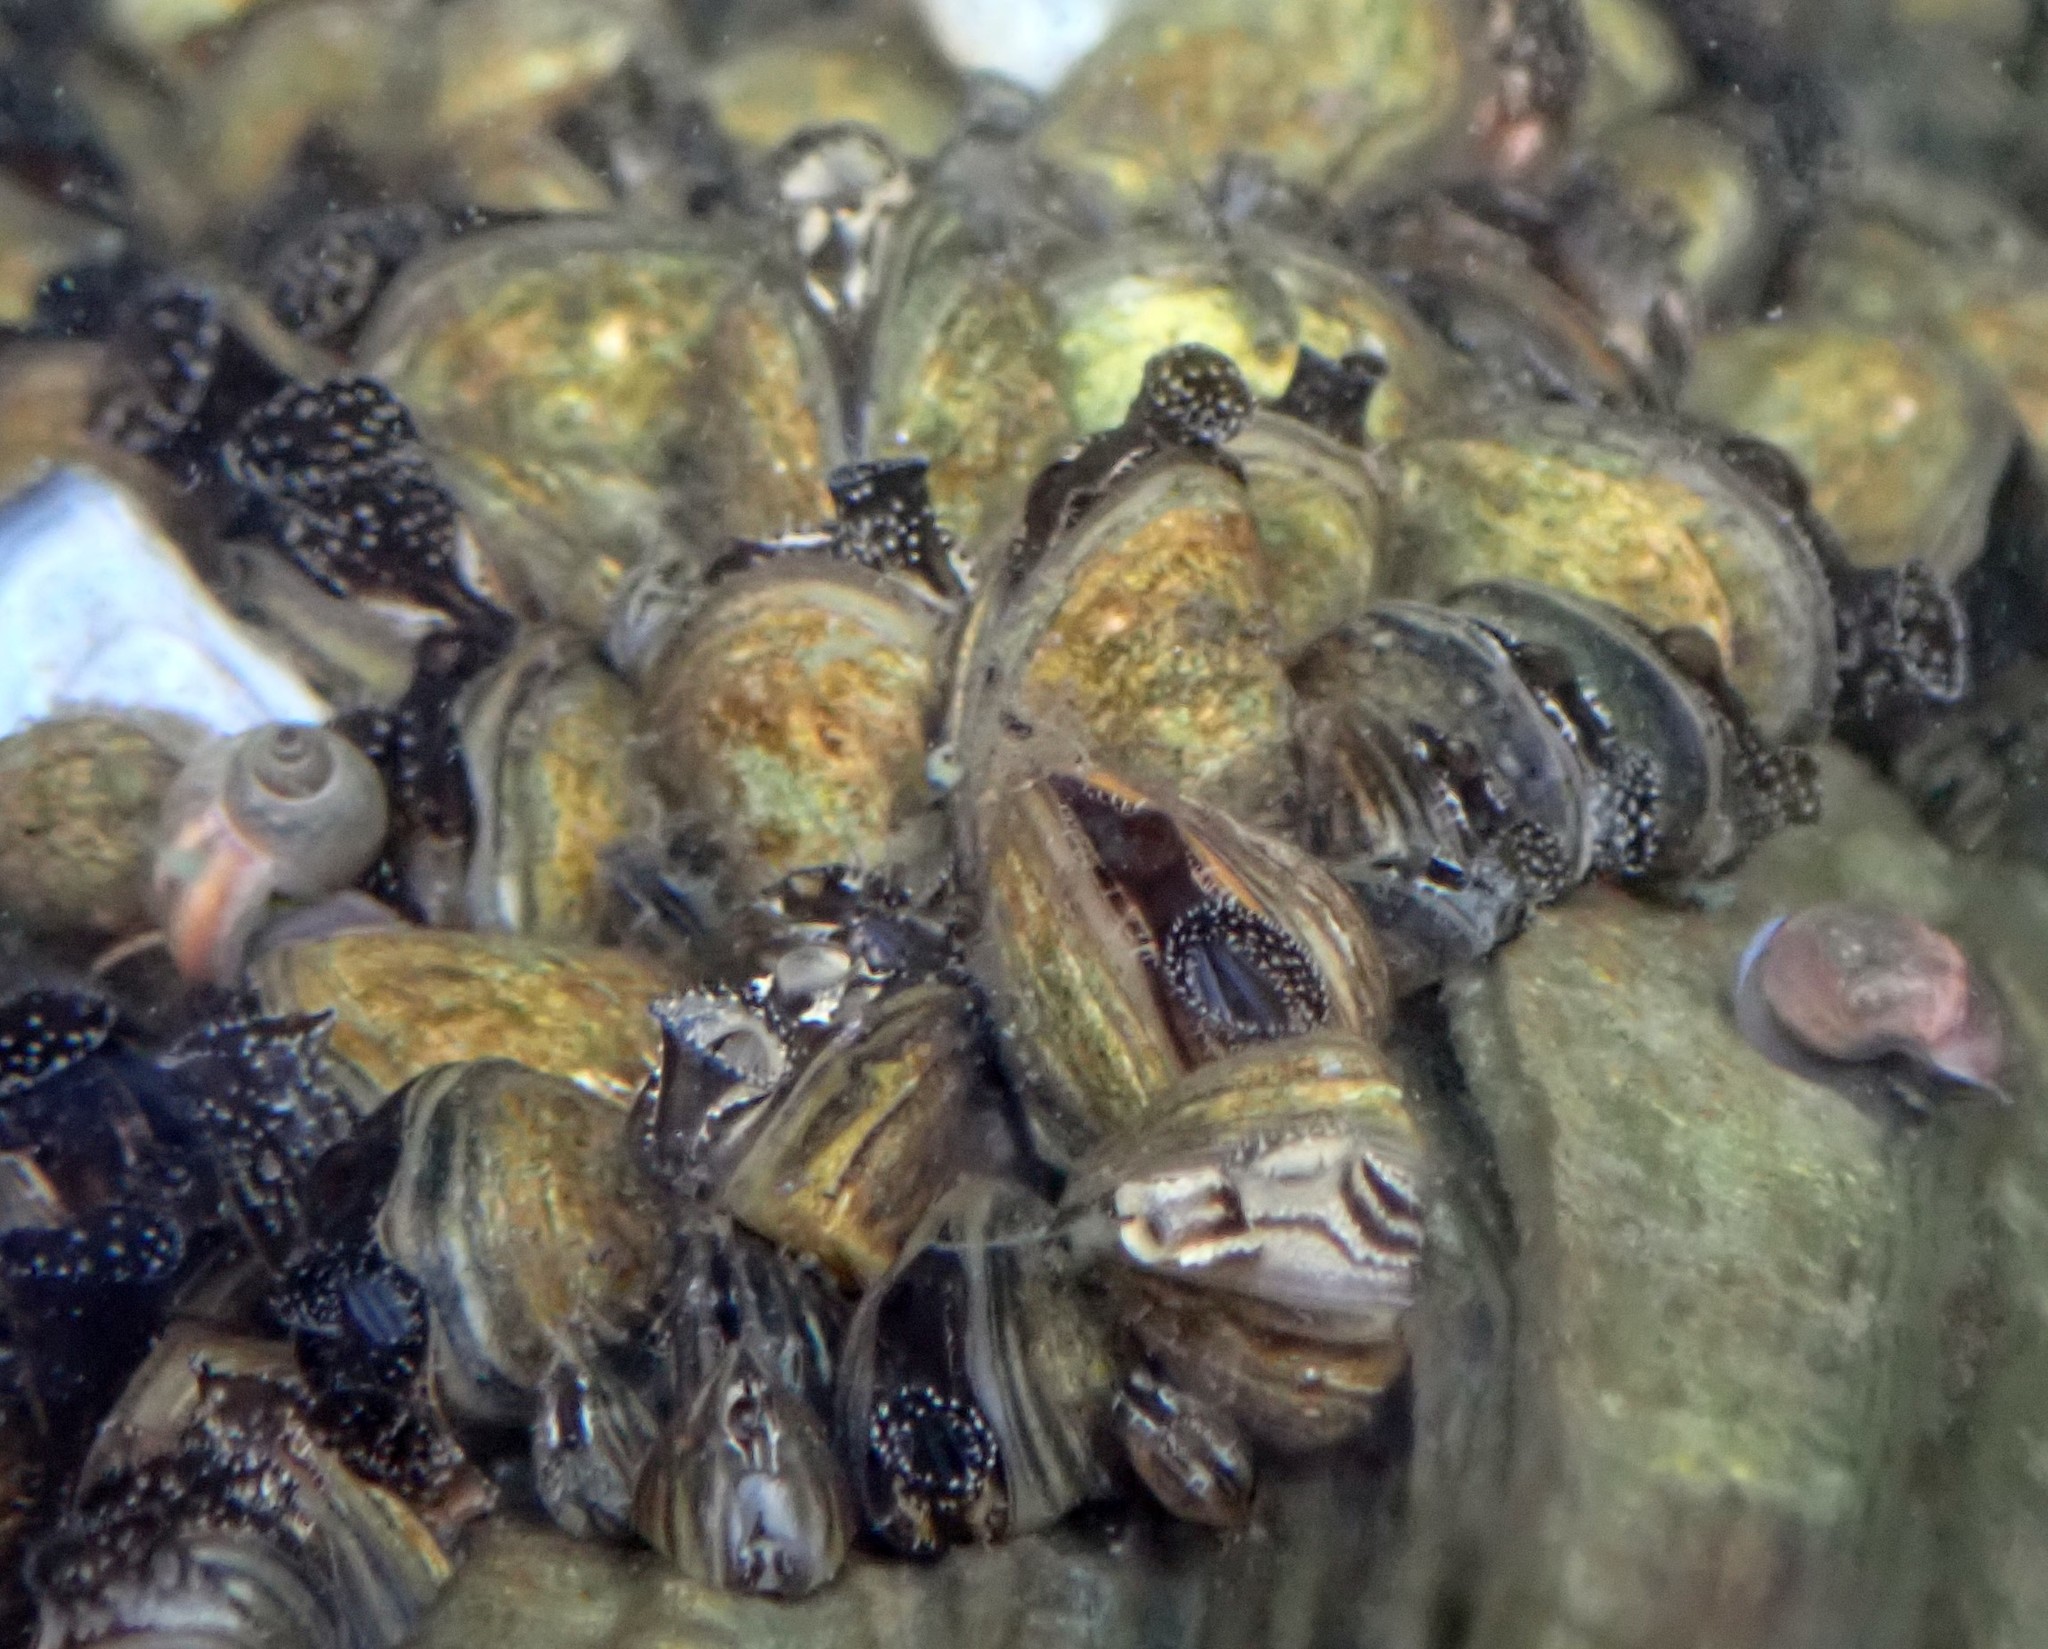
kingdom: Animalia
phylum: Mollusca
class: Gastropoda
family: Physidae
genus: Physella
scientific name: Physella acuta
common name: European physa
